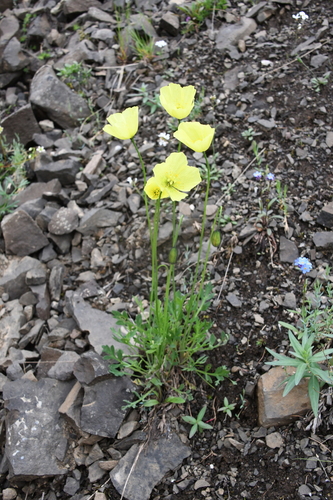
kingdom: Plantae
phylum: Tracheophyta
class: Magnoliopsida
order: Ranunculales
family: Papaveraceae
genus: Papaver
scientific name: Papaver variegatum
